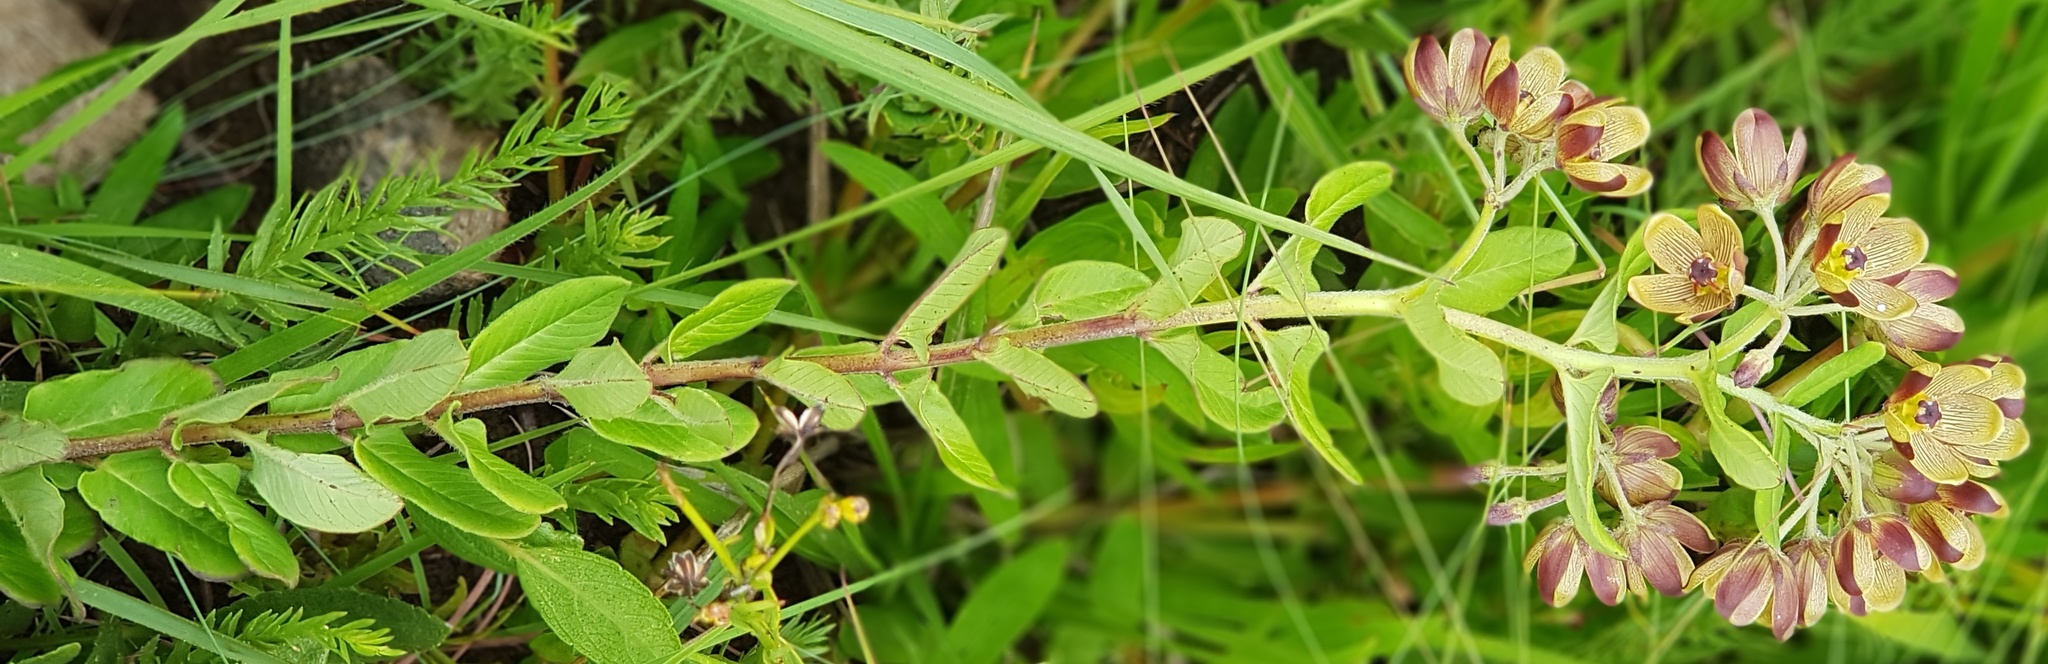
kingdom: Plantae
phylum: Tracheophyta
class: Magnoliopsida
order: Gentianales
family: Apocynaceae
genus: Schizoglossum
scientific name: Schizoglossum hamatum
